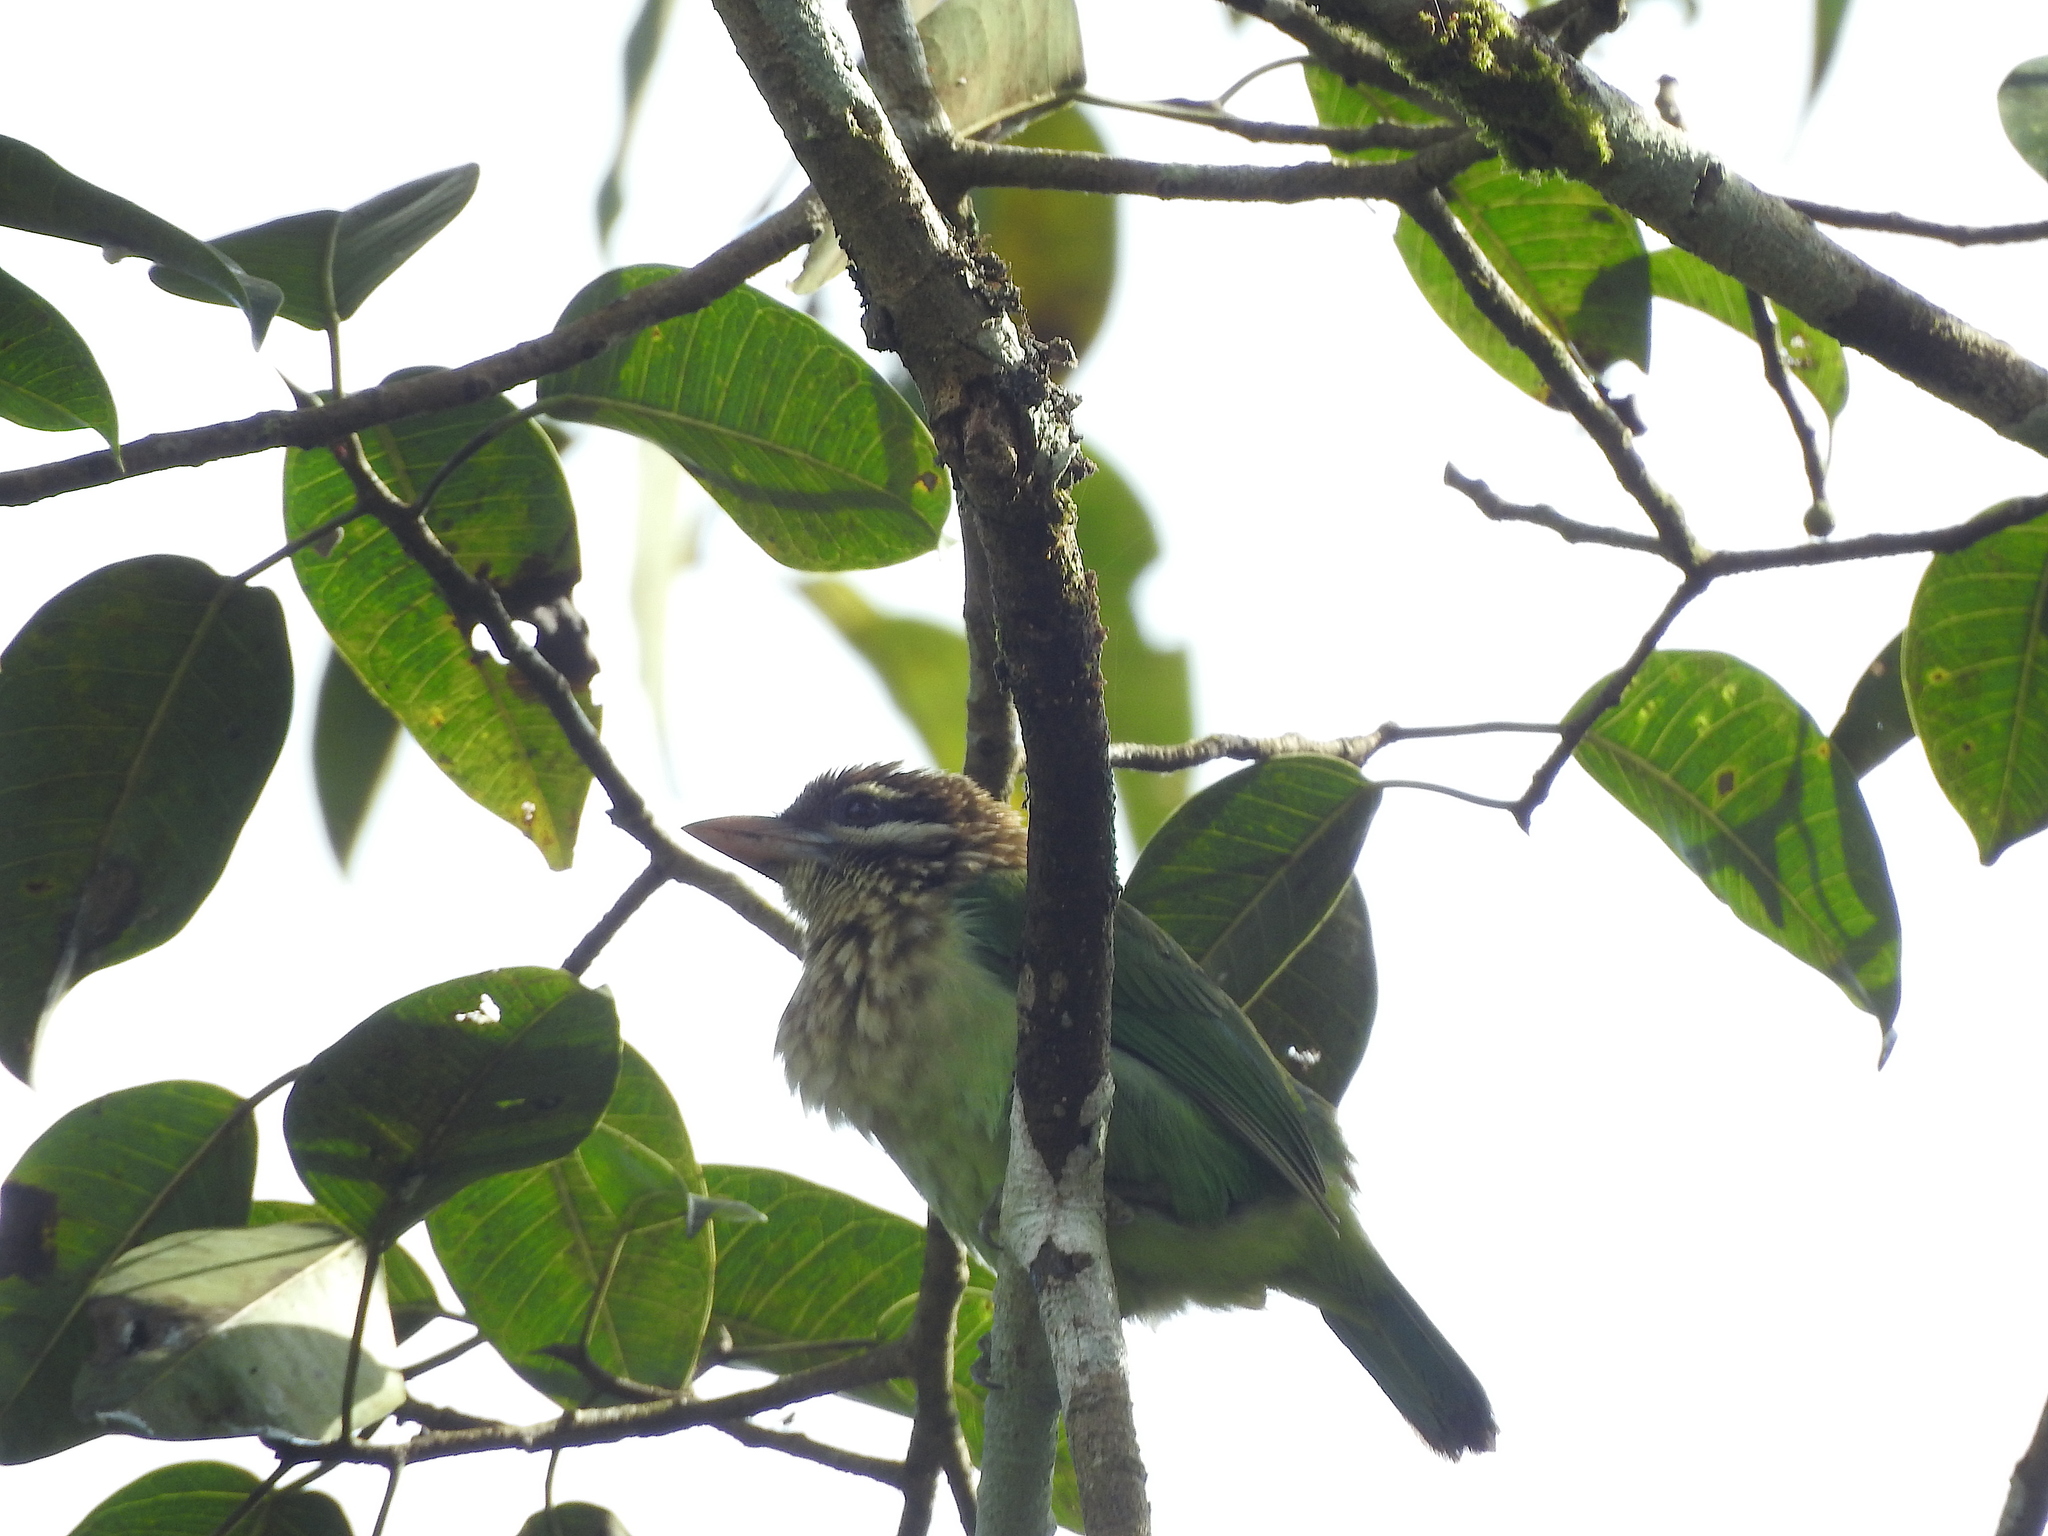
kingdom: Animalia
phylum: Chordata
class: Aves
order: Piciformes
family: Megalaimidae
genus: Psilopogon
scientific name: Psilopogon viridis
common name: White-cheeked barbet
